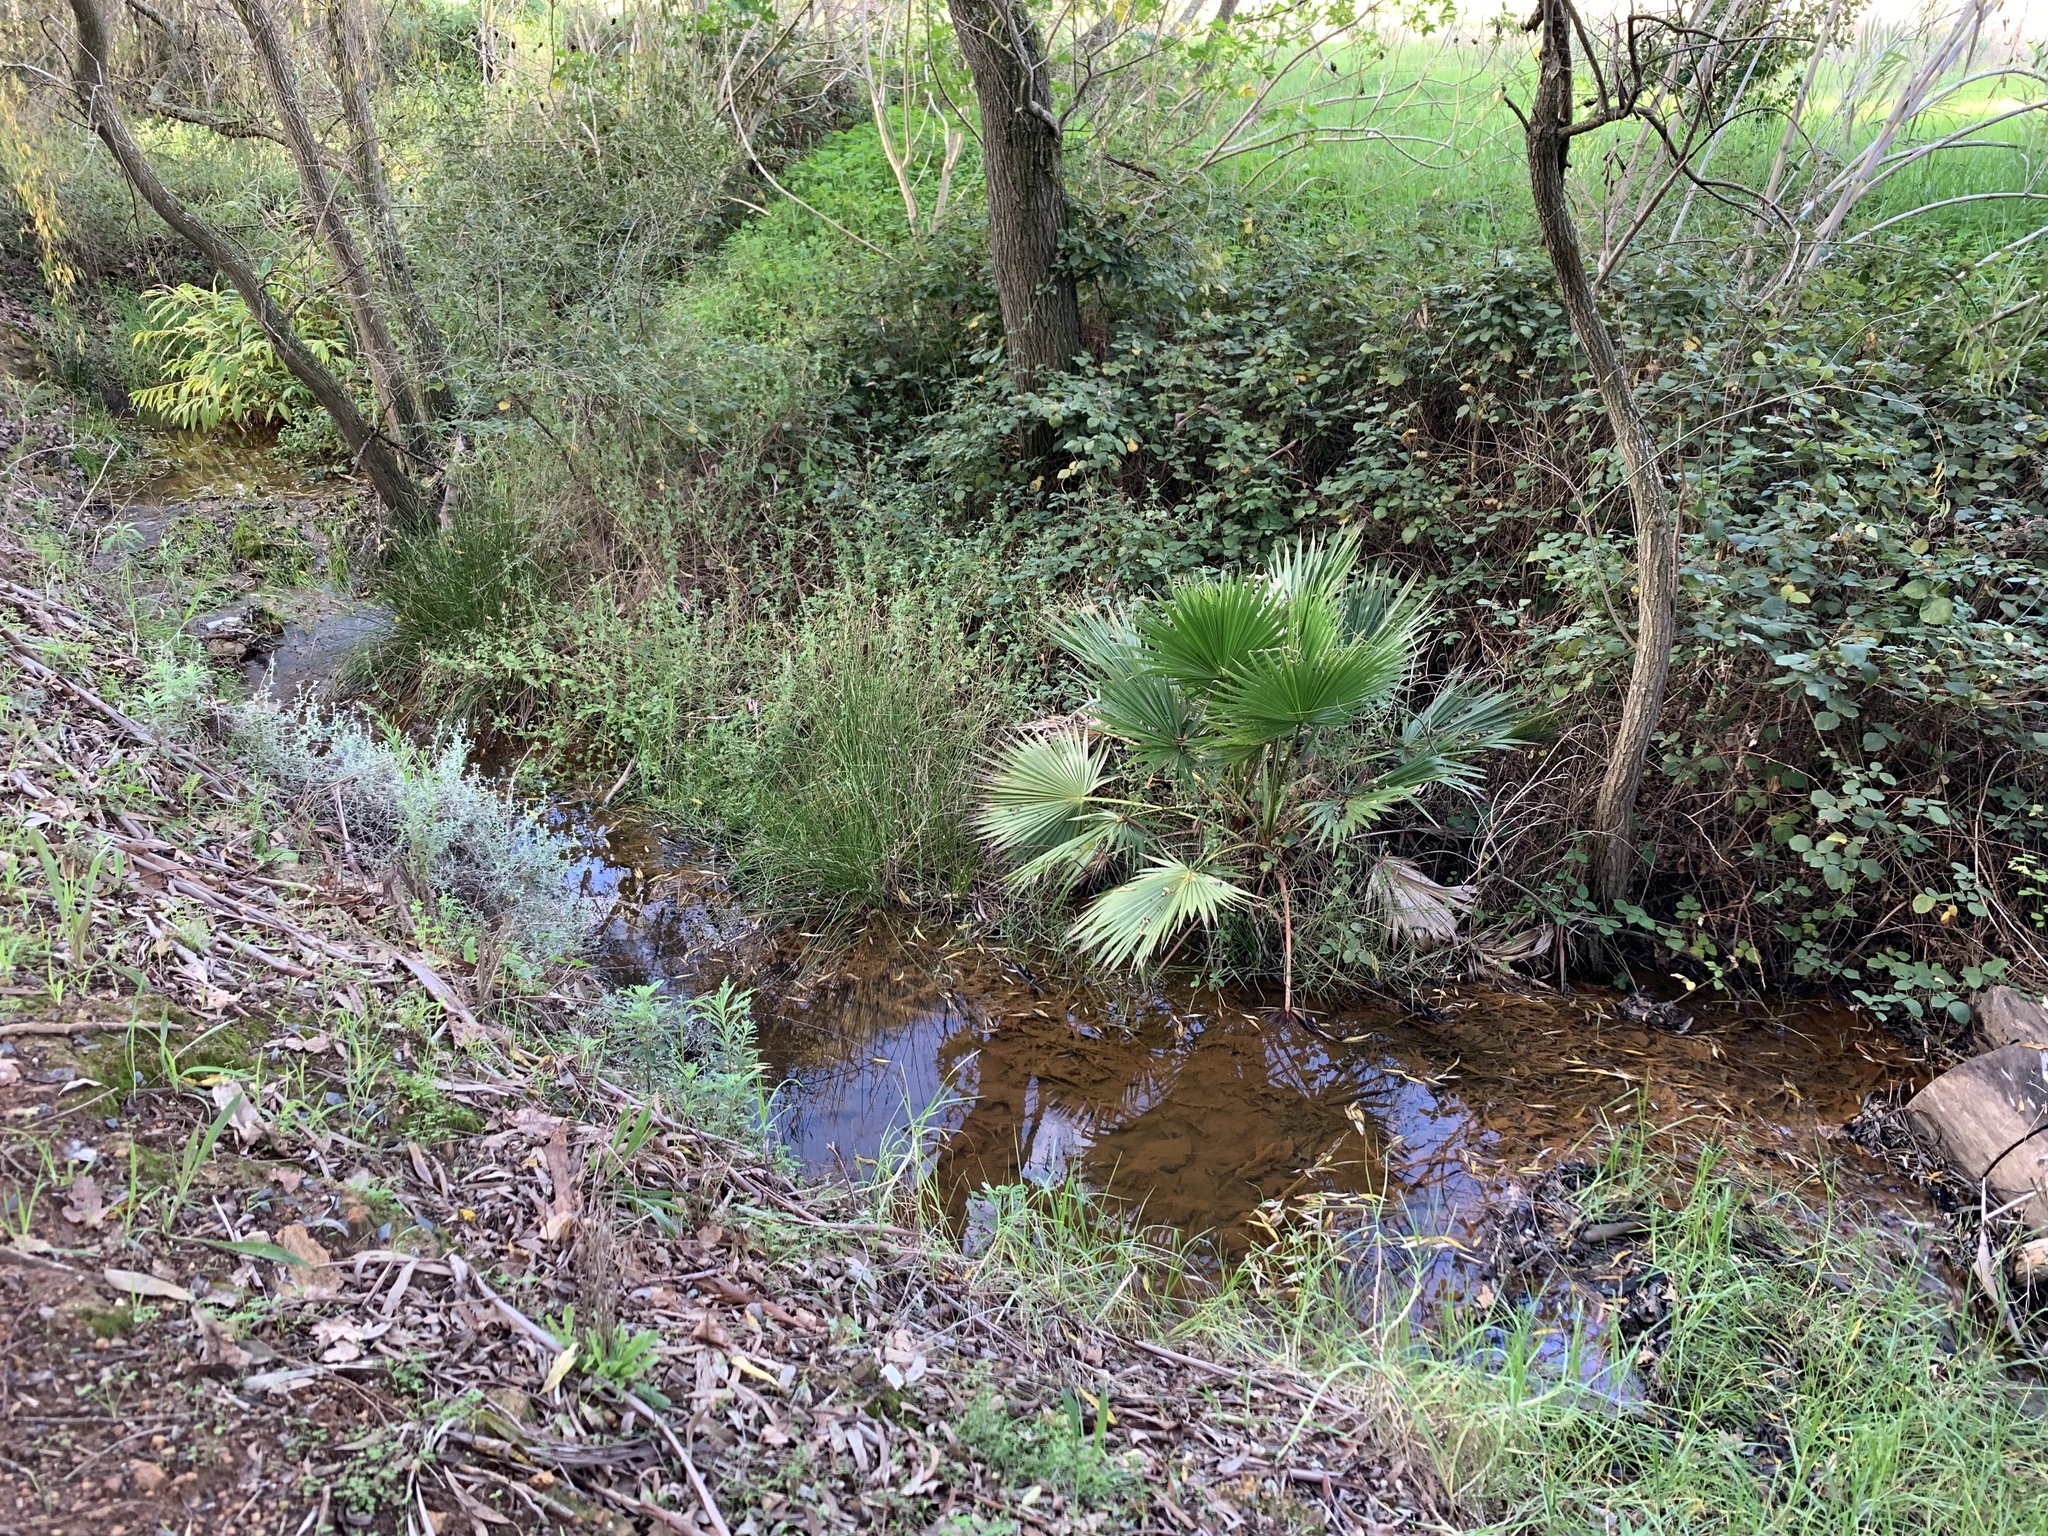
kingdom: Plantae
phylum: Tracheophyta
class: Liliopsida
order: Arecales
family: Arecaceae
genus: Washingtonia
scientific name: Washingtonia robusta
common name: Mexican fan palm
